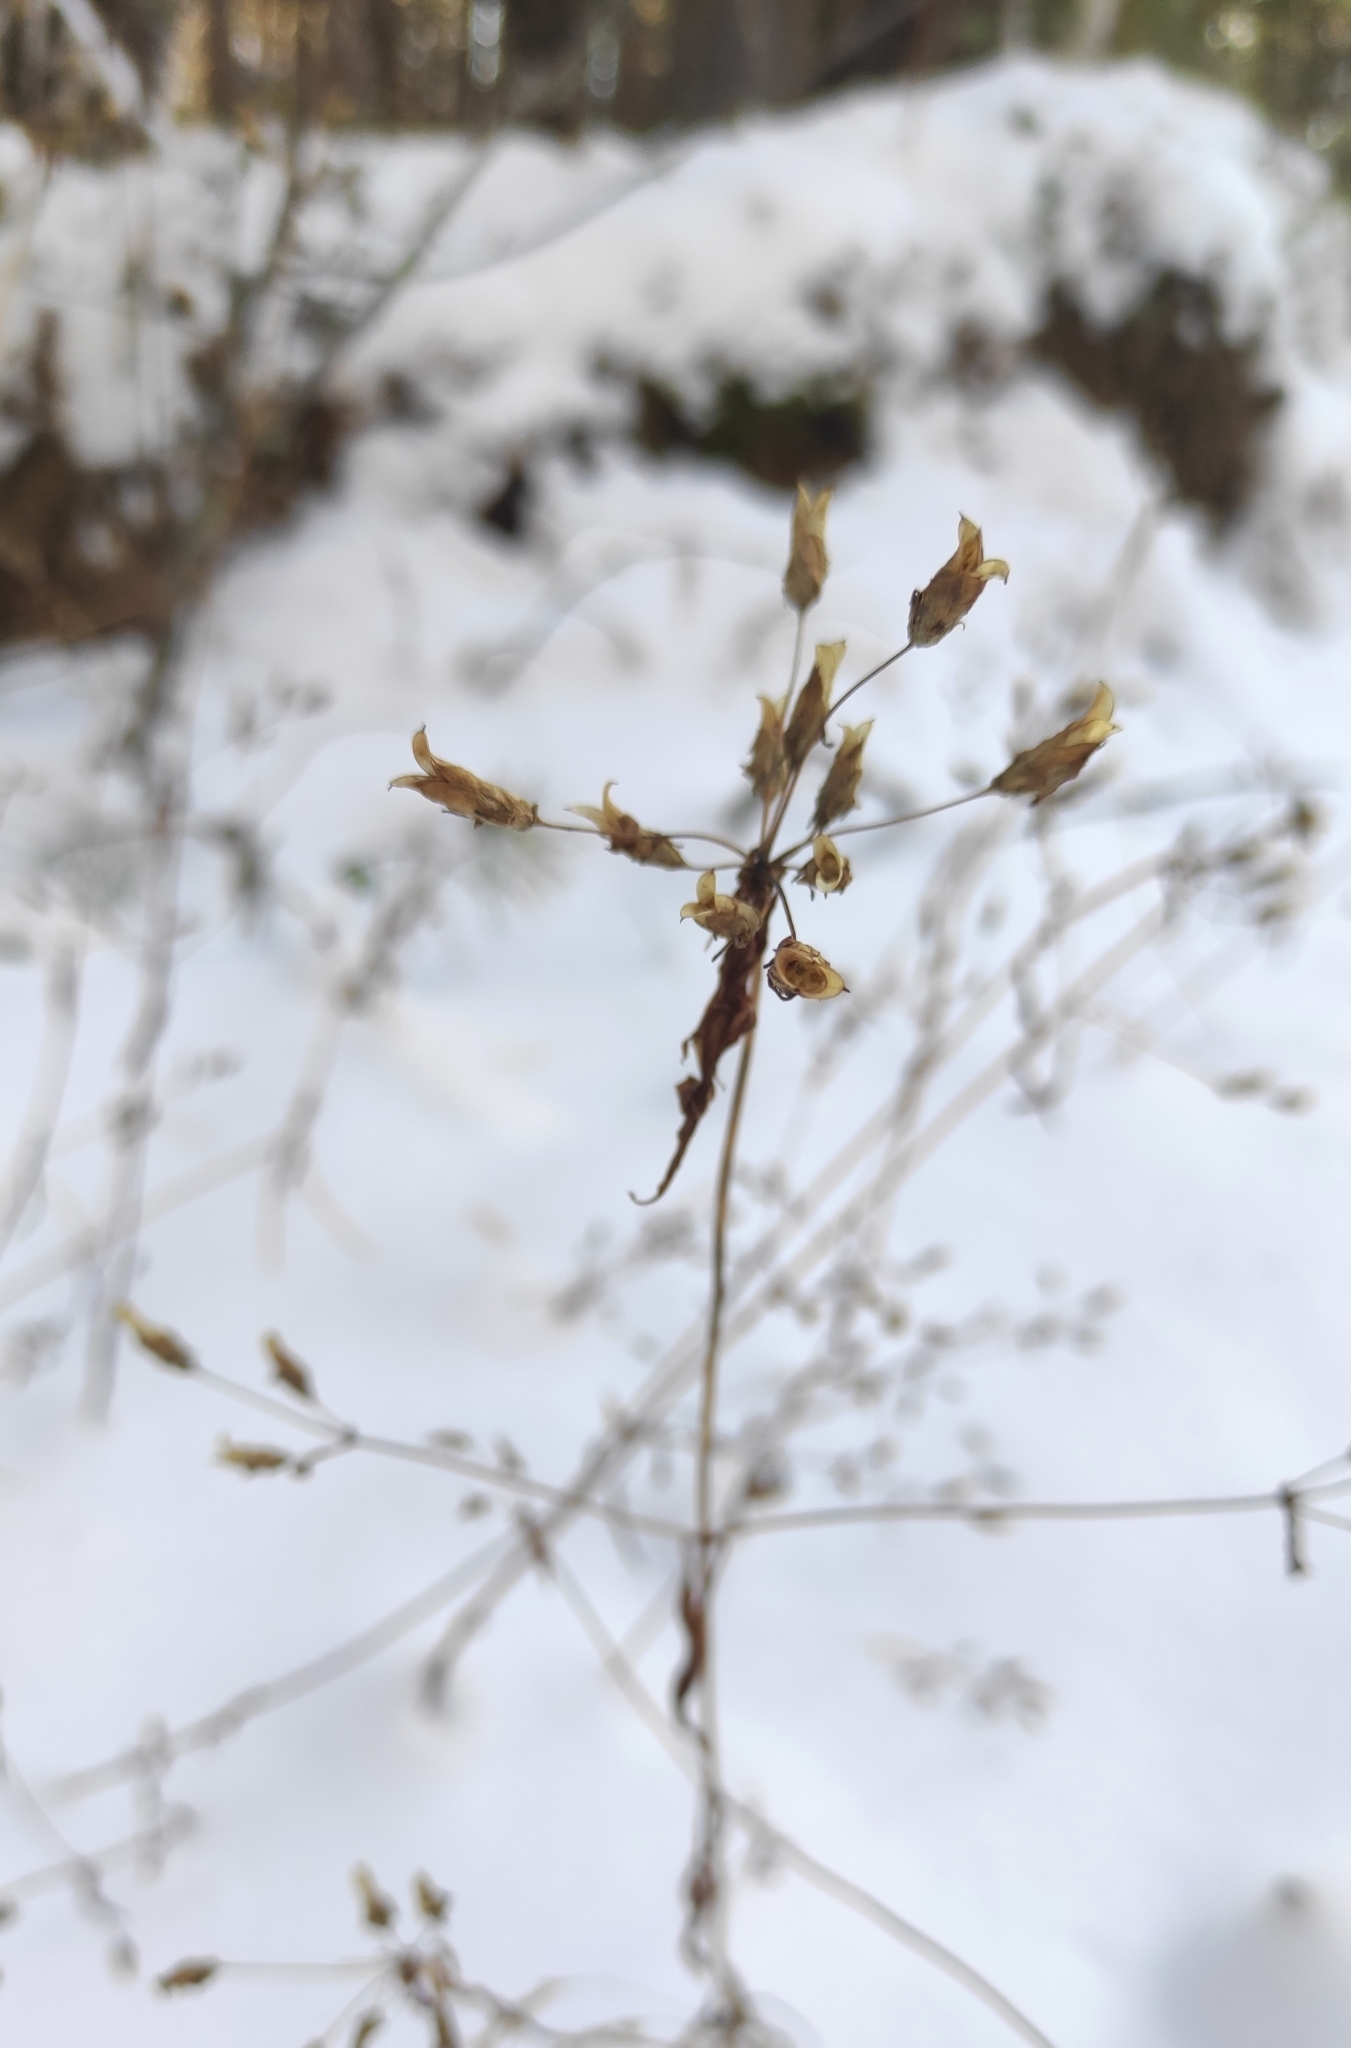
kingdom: Plantae
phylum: Tracheophyta
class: Magnoliopsida
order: Gentianales
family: Gentianaceae
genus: Halenia
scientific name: Halenia corniculata
